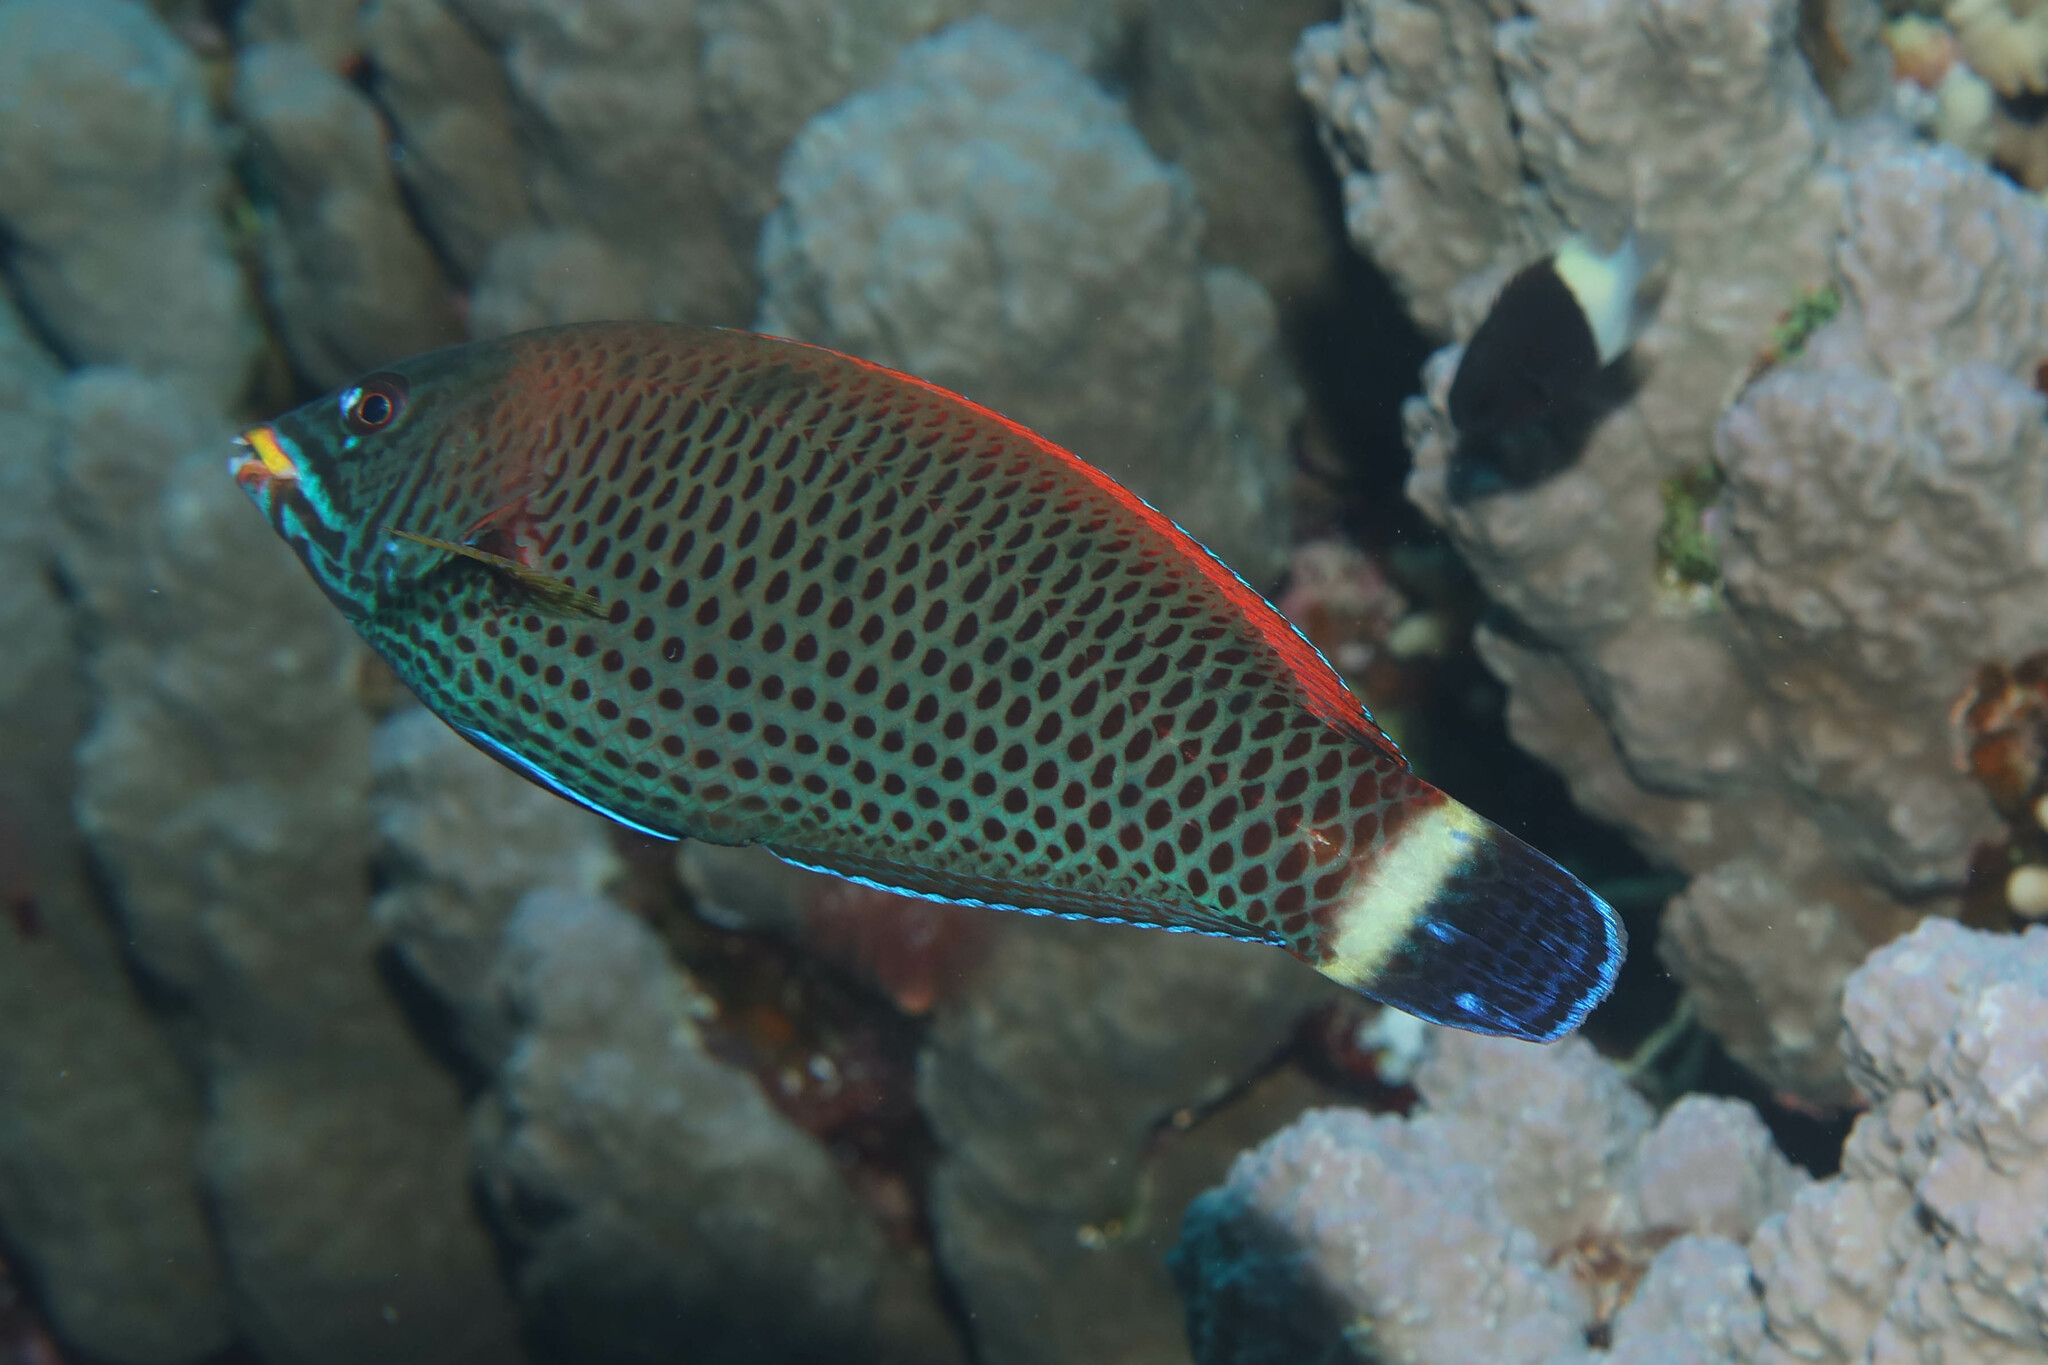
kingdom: Animalia
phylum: Chordata
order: Perciformes
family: Labridae
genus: Pseudodax
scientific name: Pseudodax moluccanus
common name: Chiseltooth wrasse
